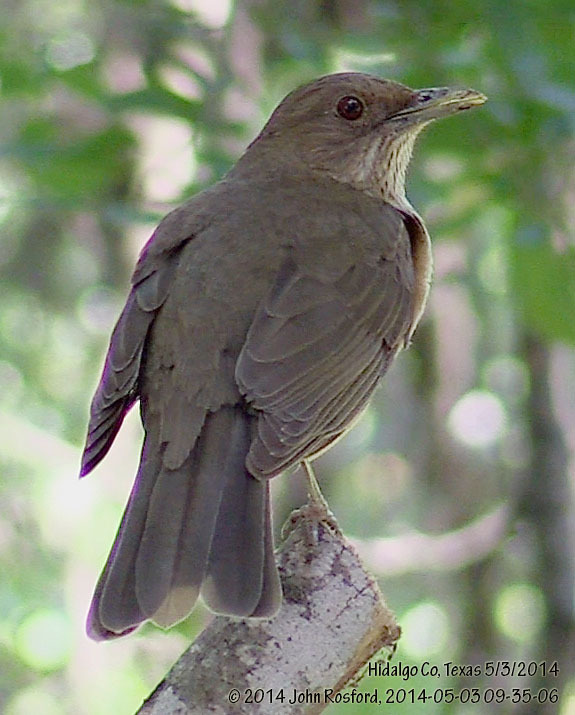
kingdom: Animalia
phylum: Chordata
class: Aves
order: Passeriformes
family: Turdidae
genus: Turdus
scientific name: Turdus grayi
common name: Clay-colored thrush
